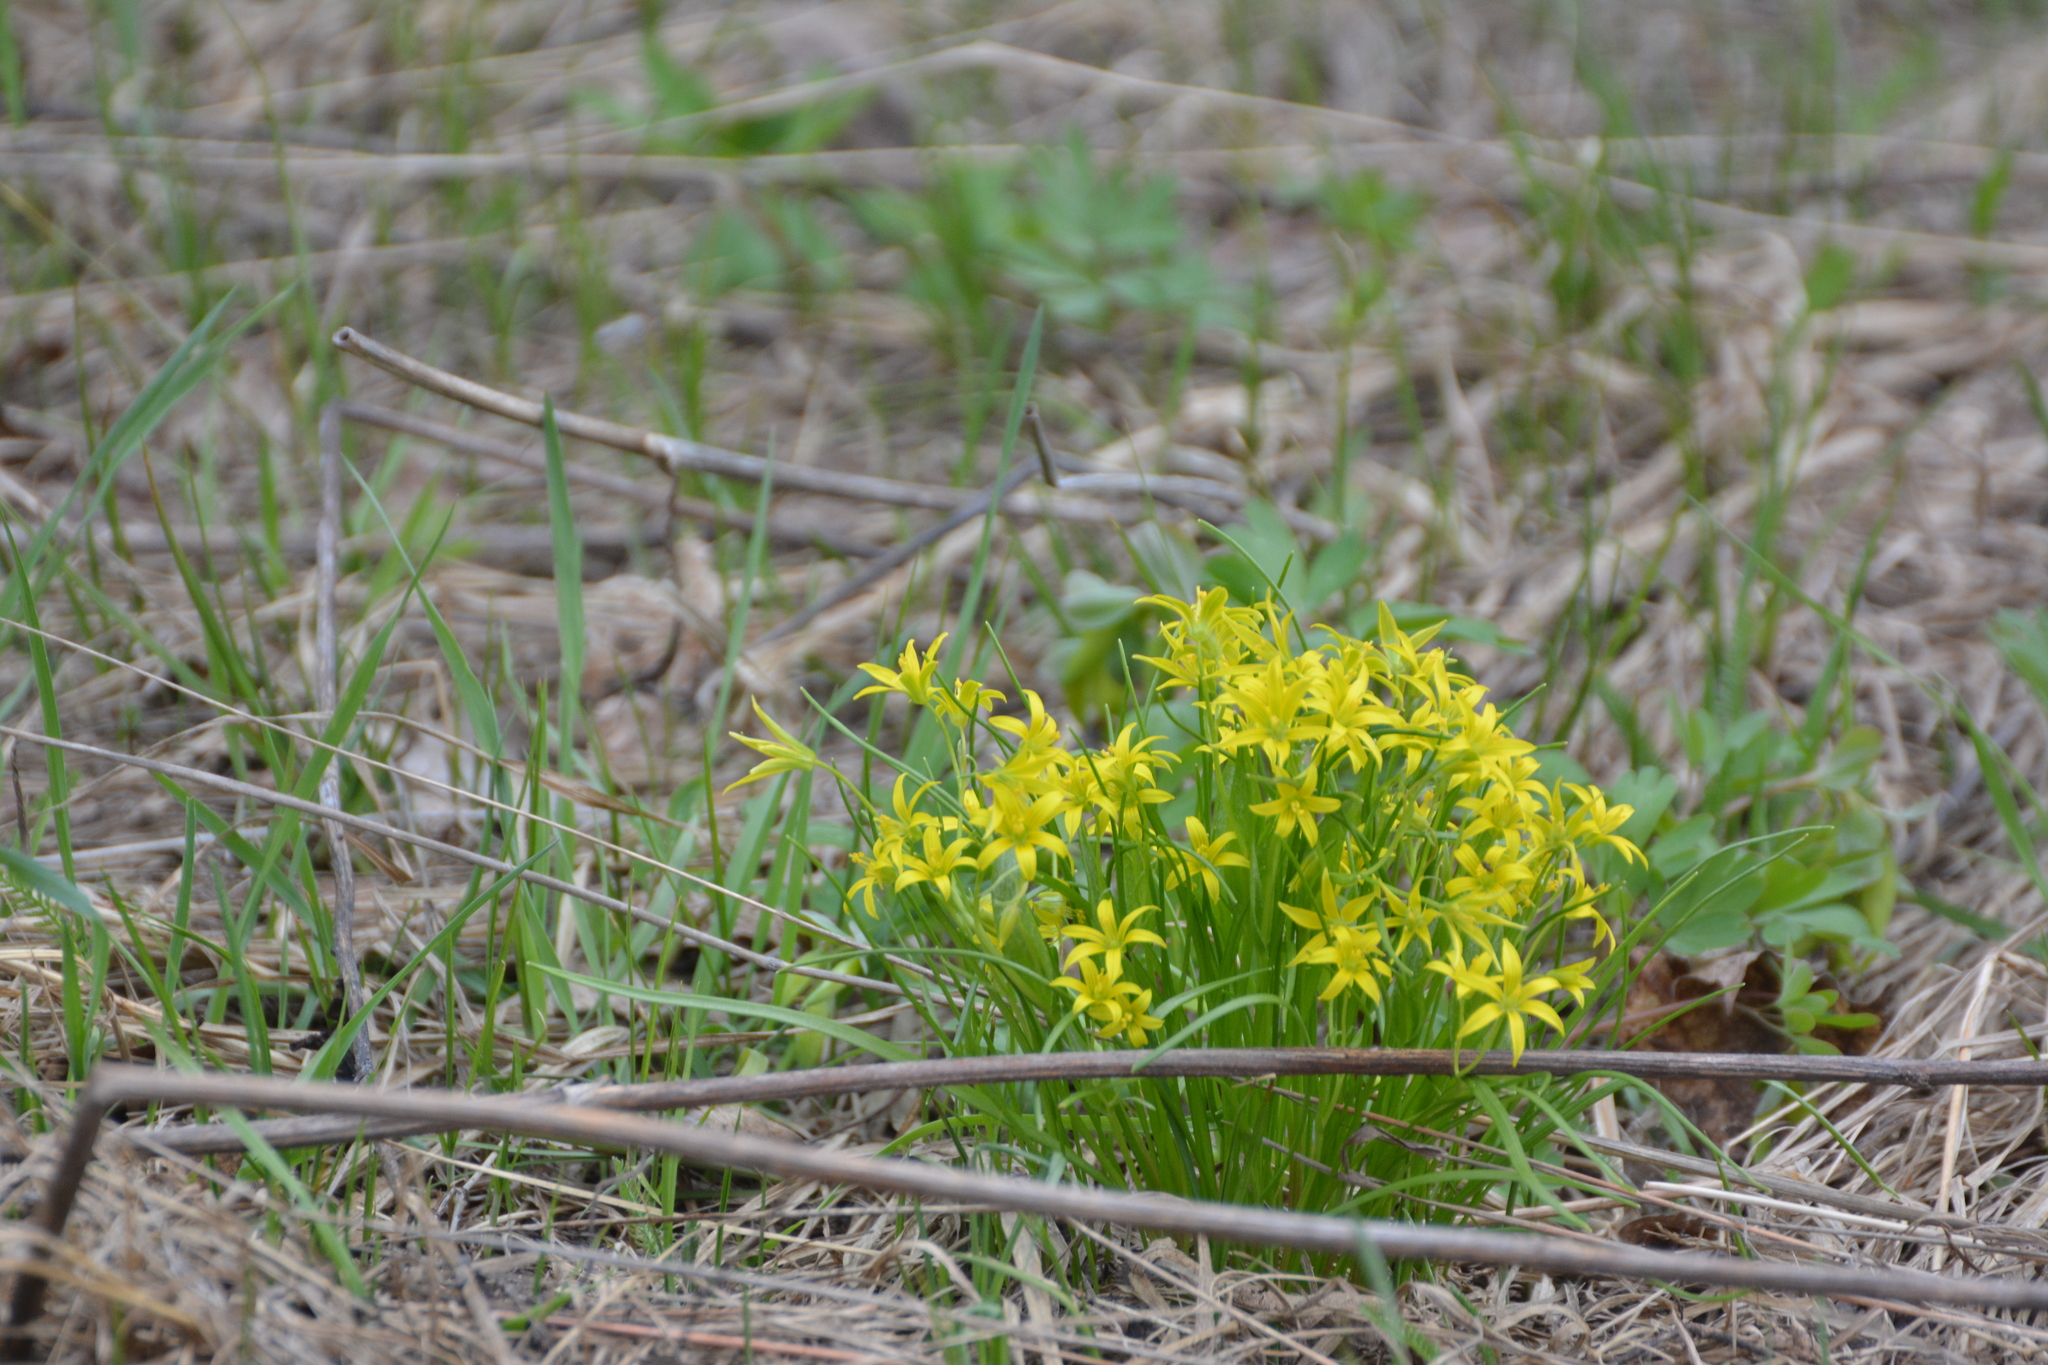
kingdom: Plantae
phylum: Tracheophyta
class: Liliopsida
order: Liliales
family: Liliaceae
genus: Gagea
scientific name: Gagea minima
